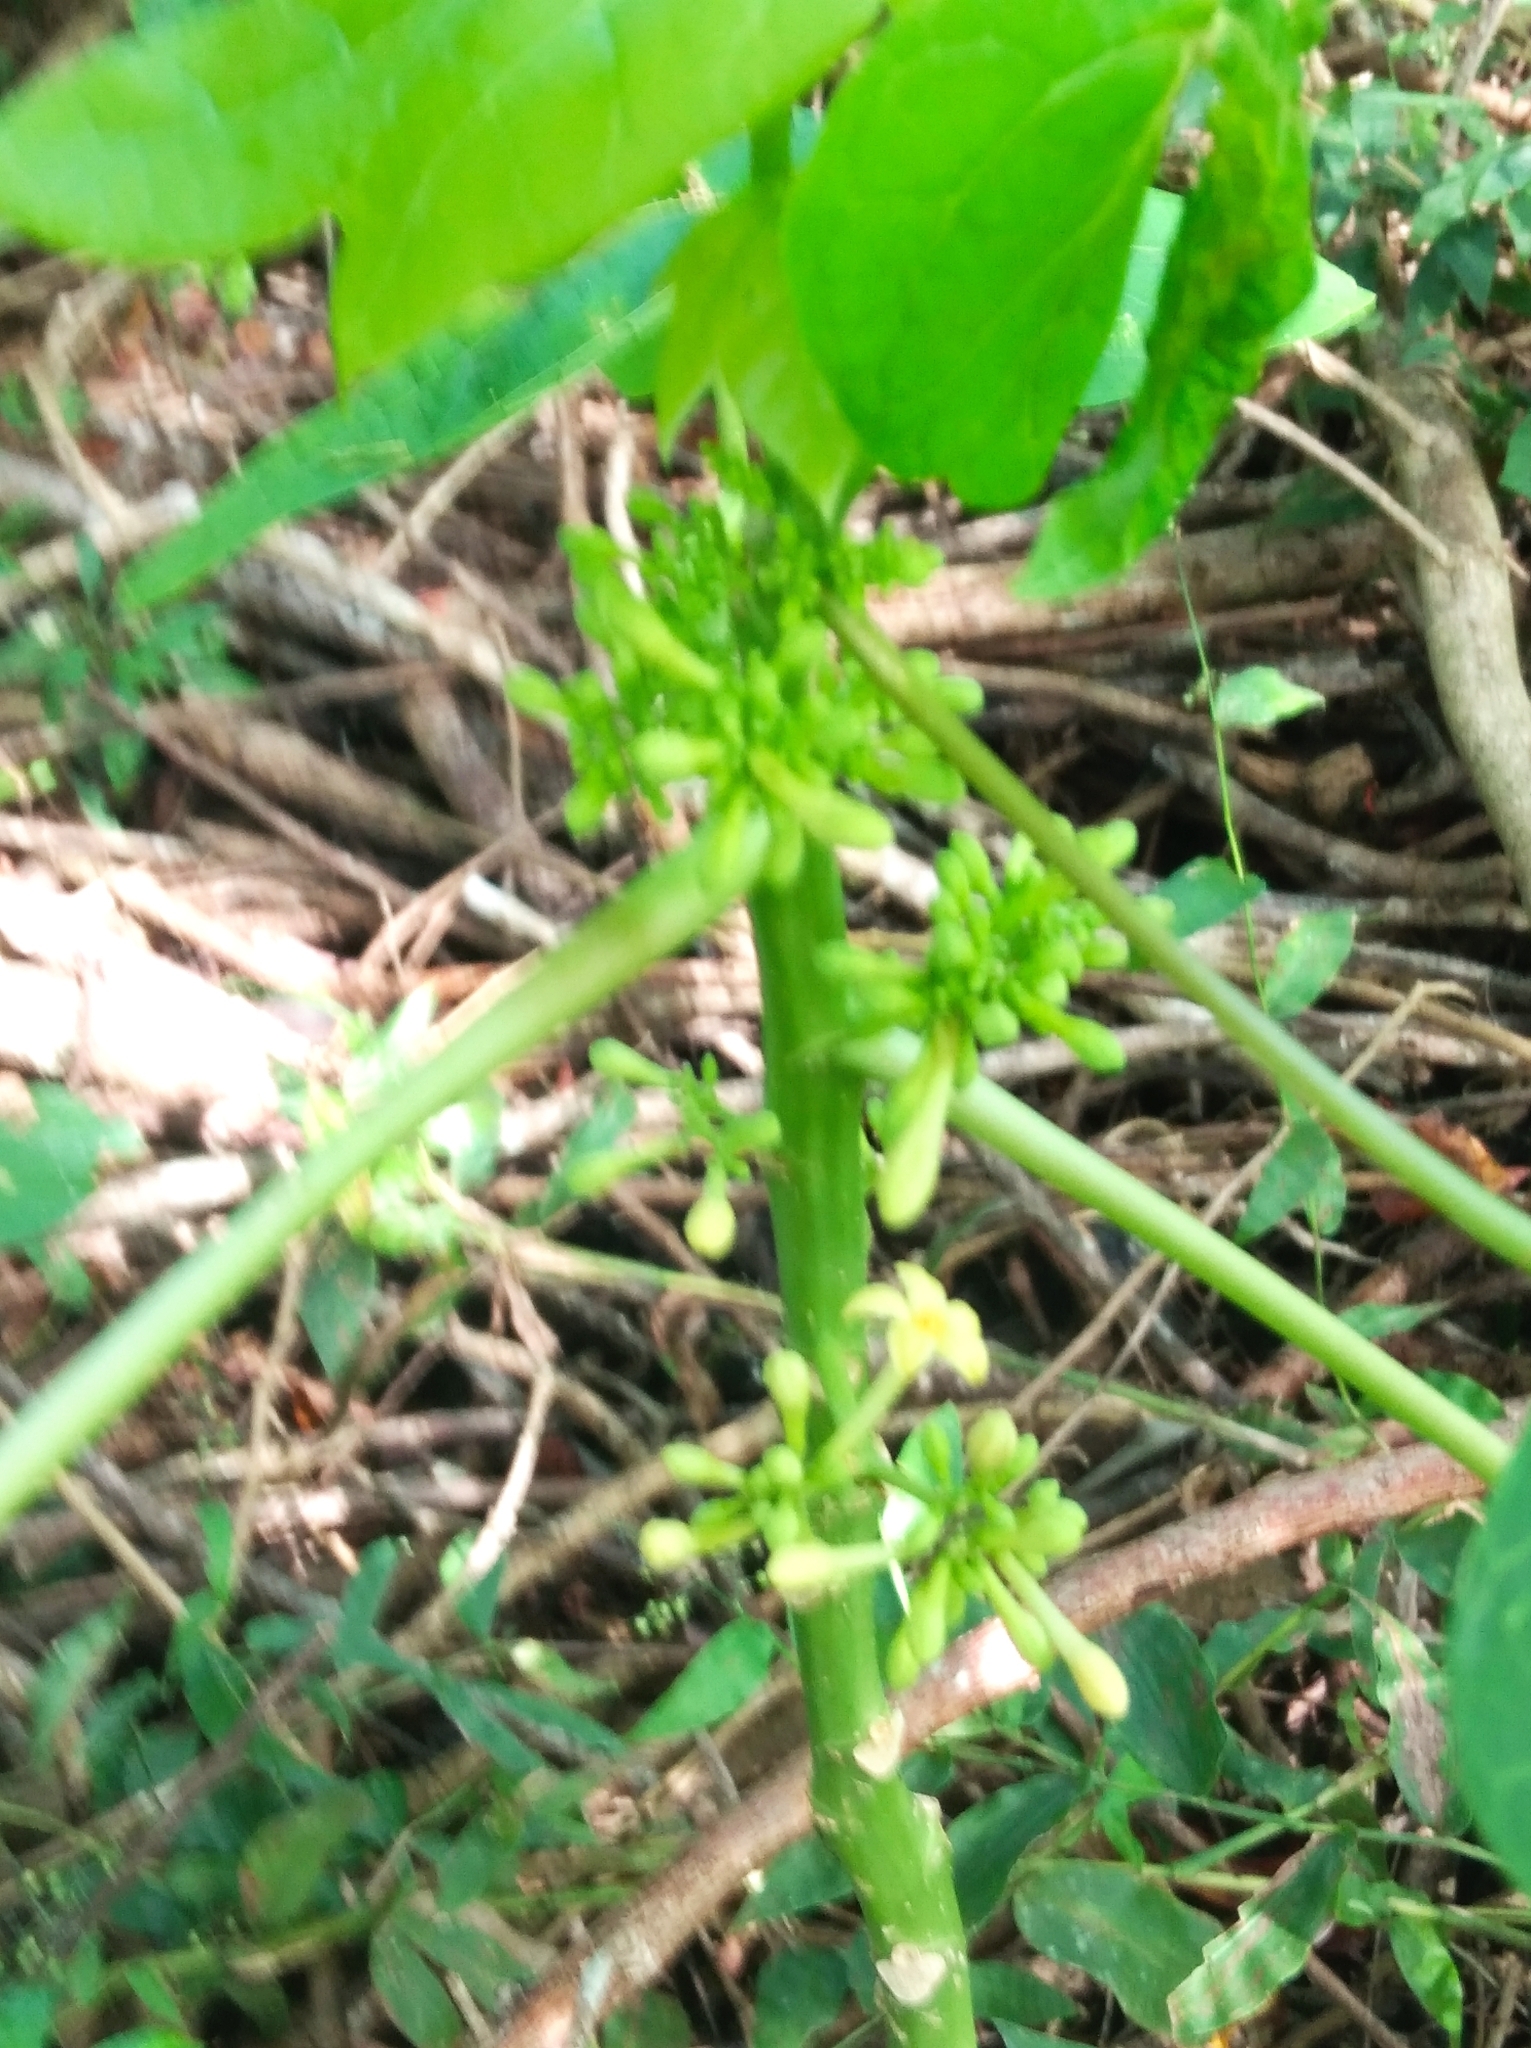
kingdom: Plantae
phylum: Tracheophyta
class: Magnoliopsida
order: Brassicales
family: Caricaceae
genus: Carica
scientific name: Carica papaya
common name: Papaya
